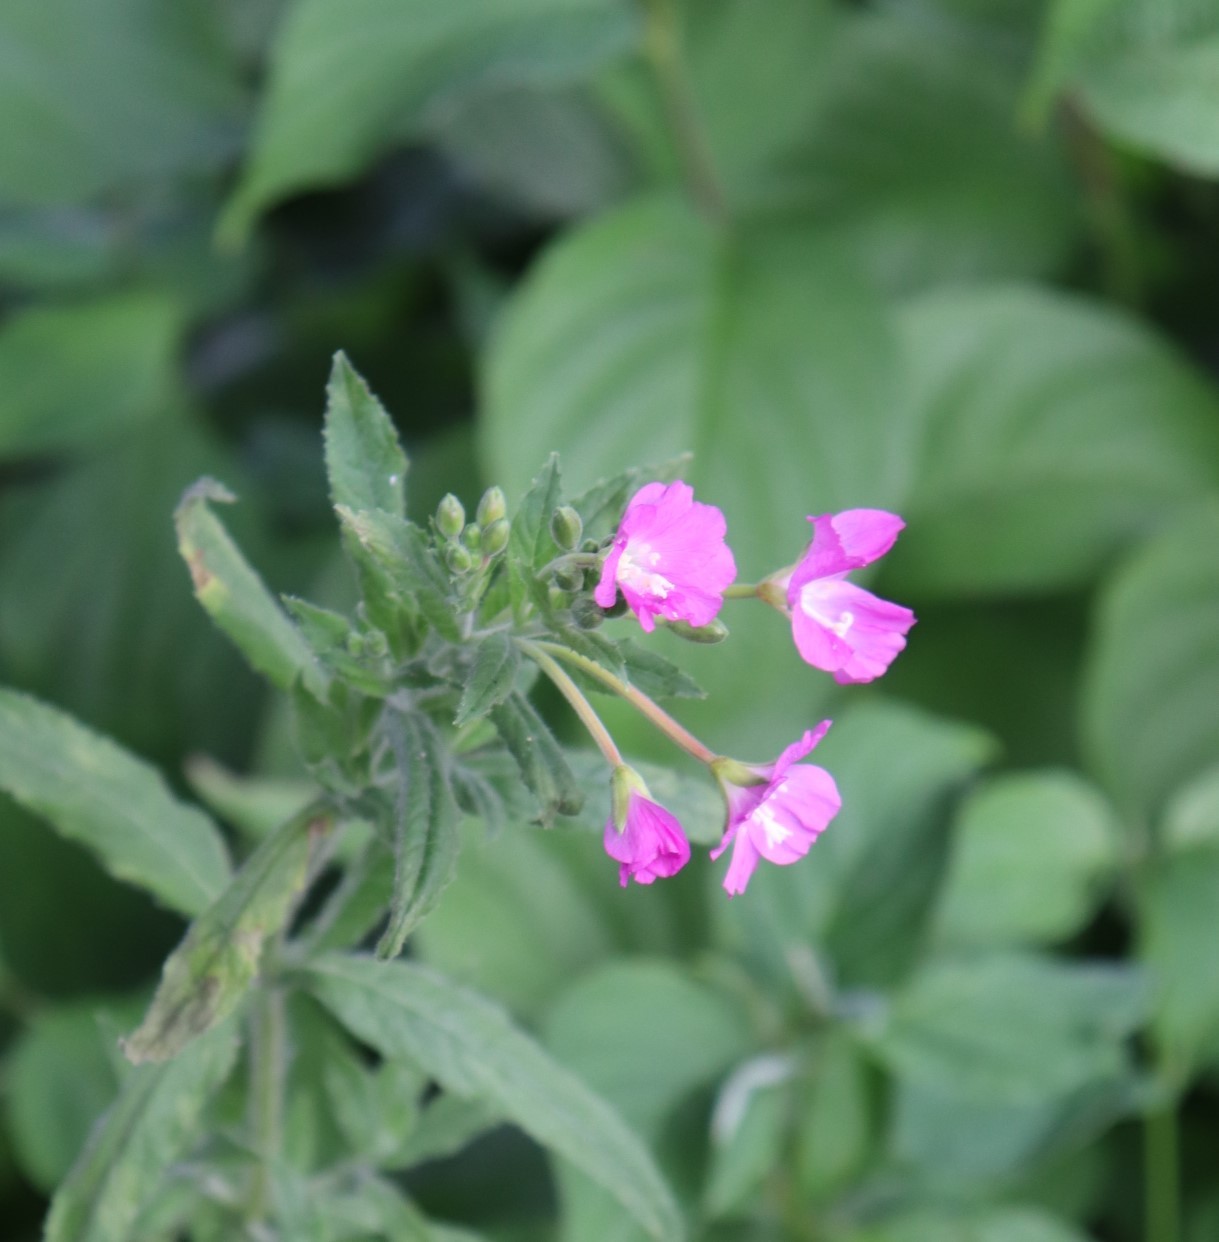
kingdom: Plantae
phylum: Tracheophyta
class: Magnoliopsida
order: Myrtales
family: Onagraceae
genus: Epilobium
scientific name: Epilobium hirsutum
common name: Great willowherb
